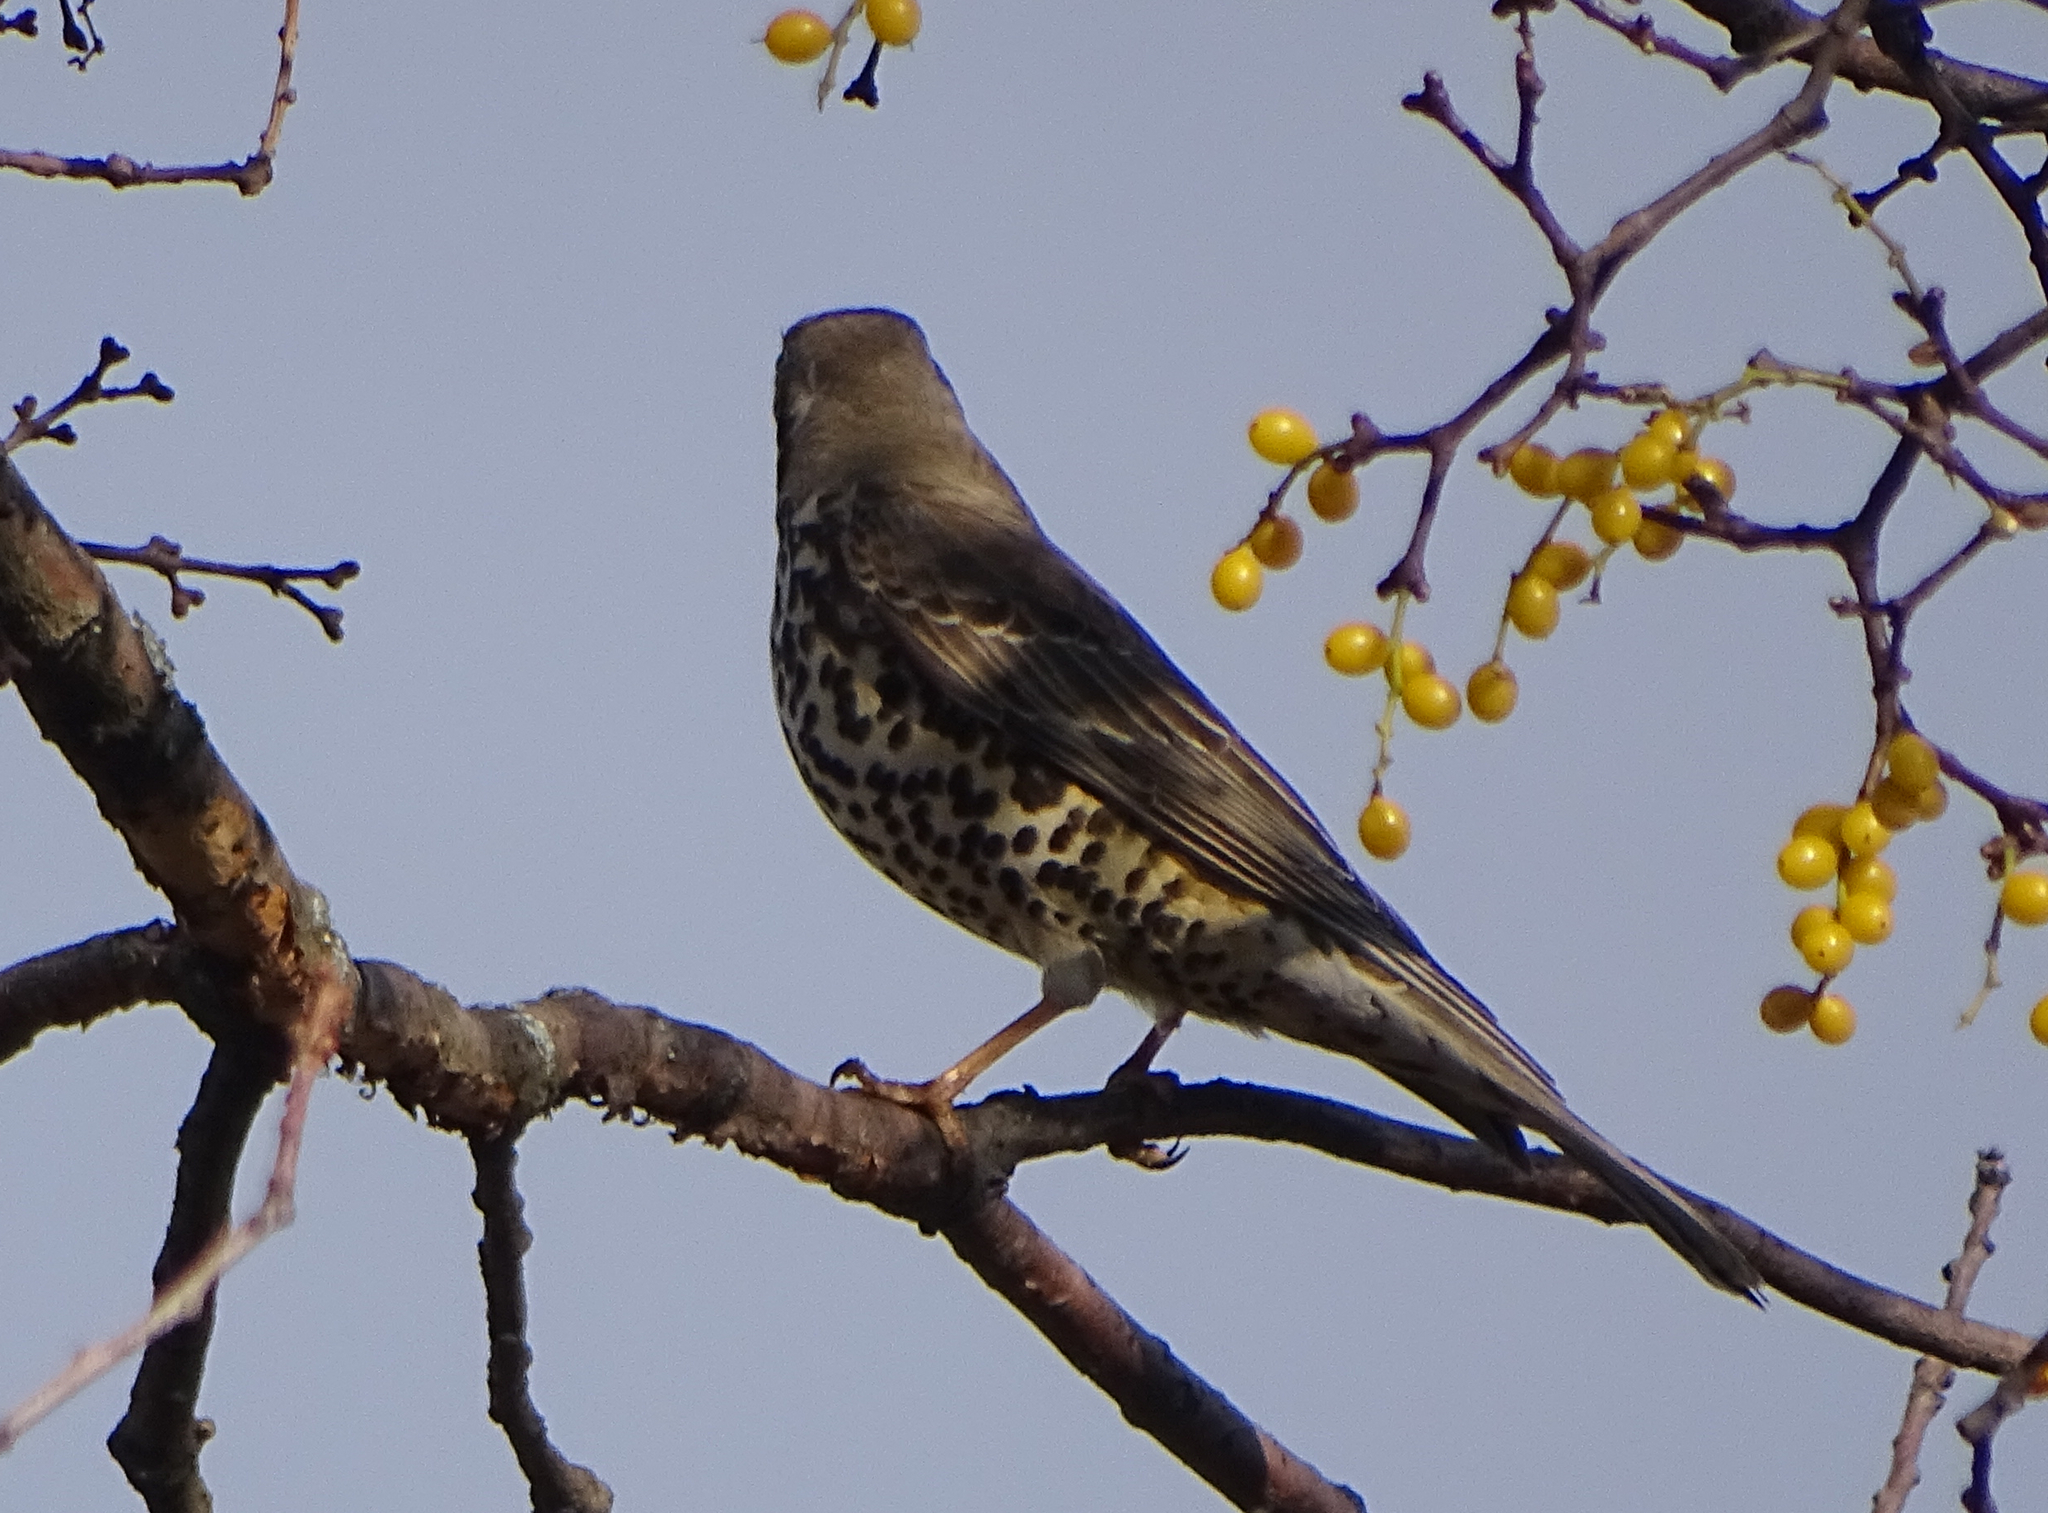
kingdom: Animalia
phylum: Chordata
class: Aves
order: Passeriformes
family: Turdidae
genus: Turdus
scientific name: Turdus viscivorus
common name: Mistle thrush
